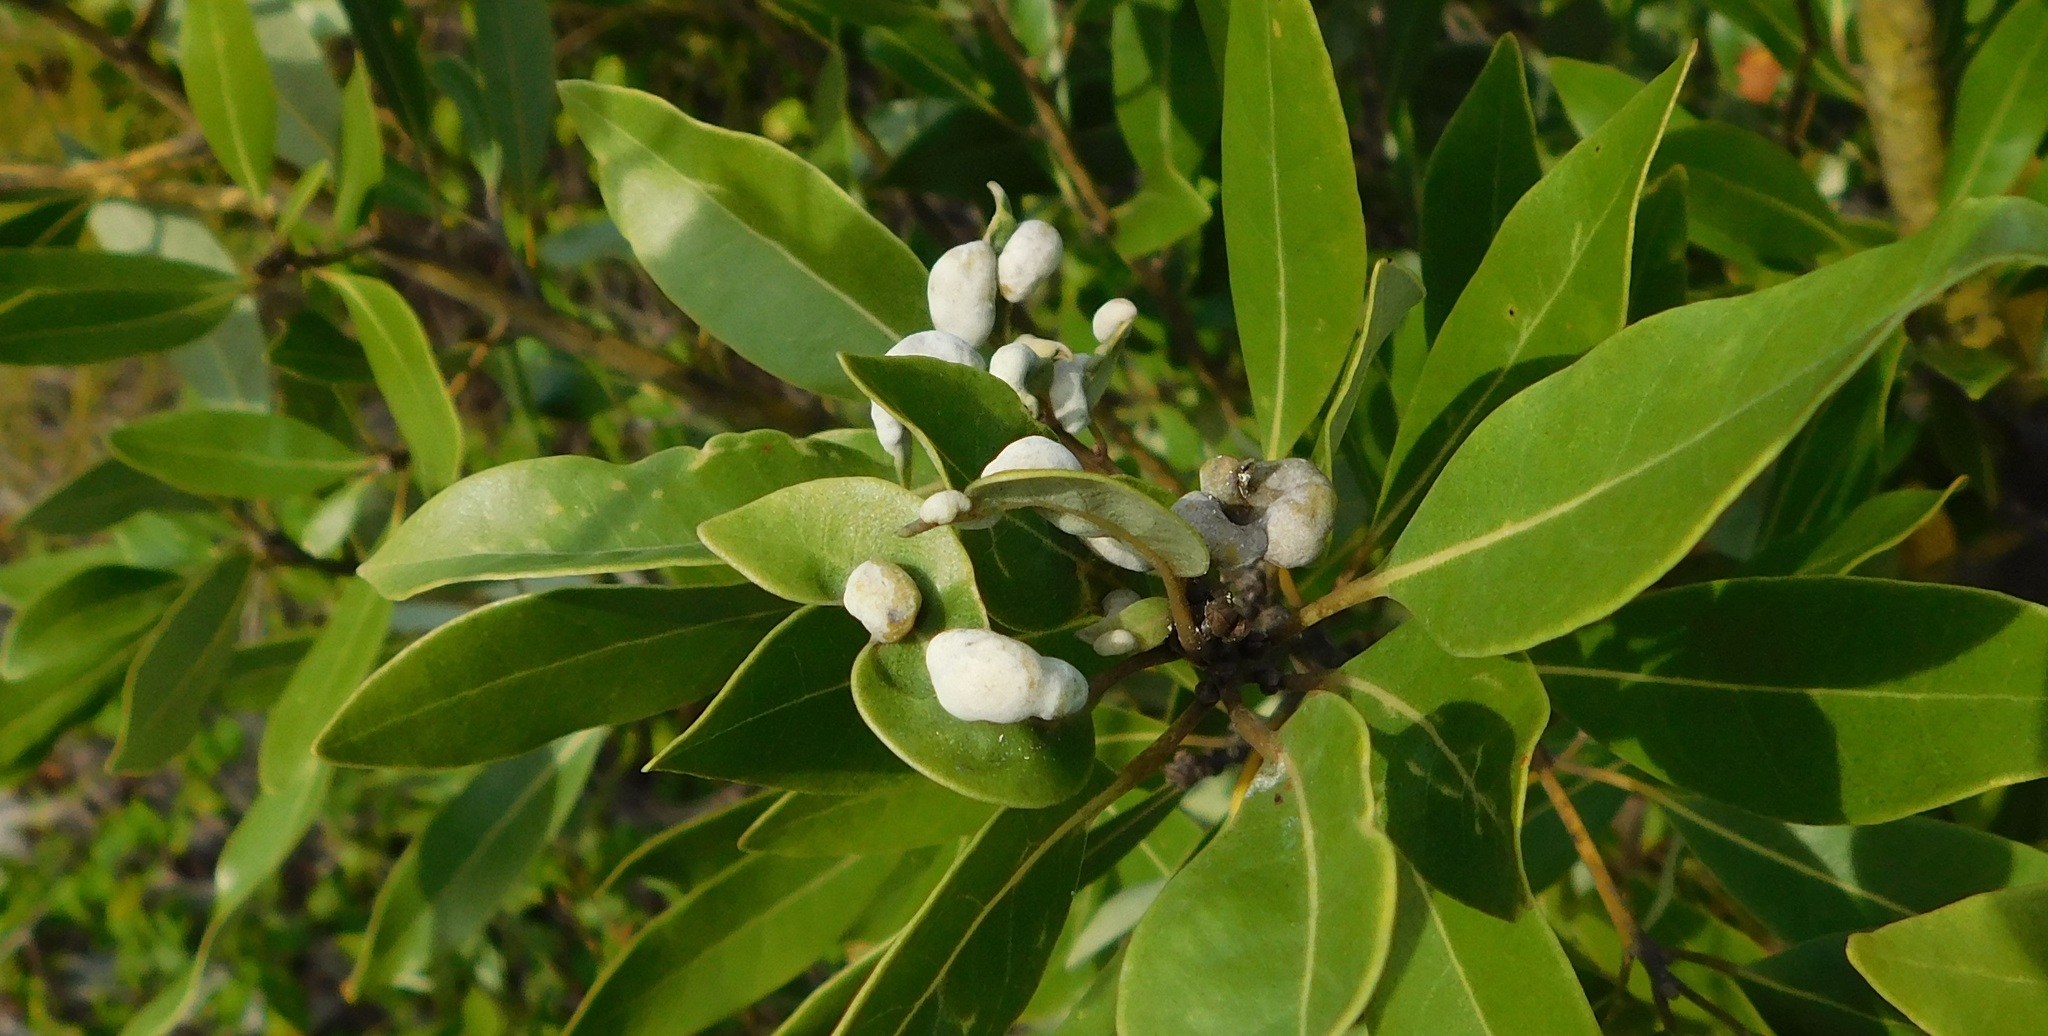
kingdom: Animalia
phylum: Arthropoda
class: Insecta
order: Hemiptera
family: Triozidae
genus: Trioza
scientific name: Trioza magnoliae
